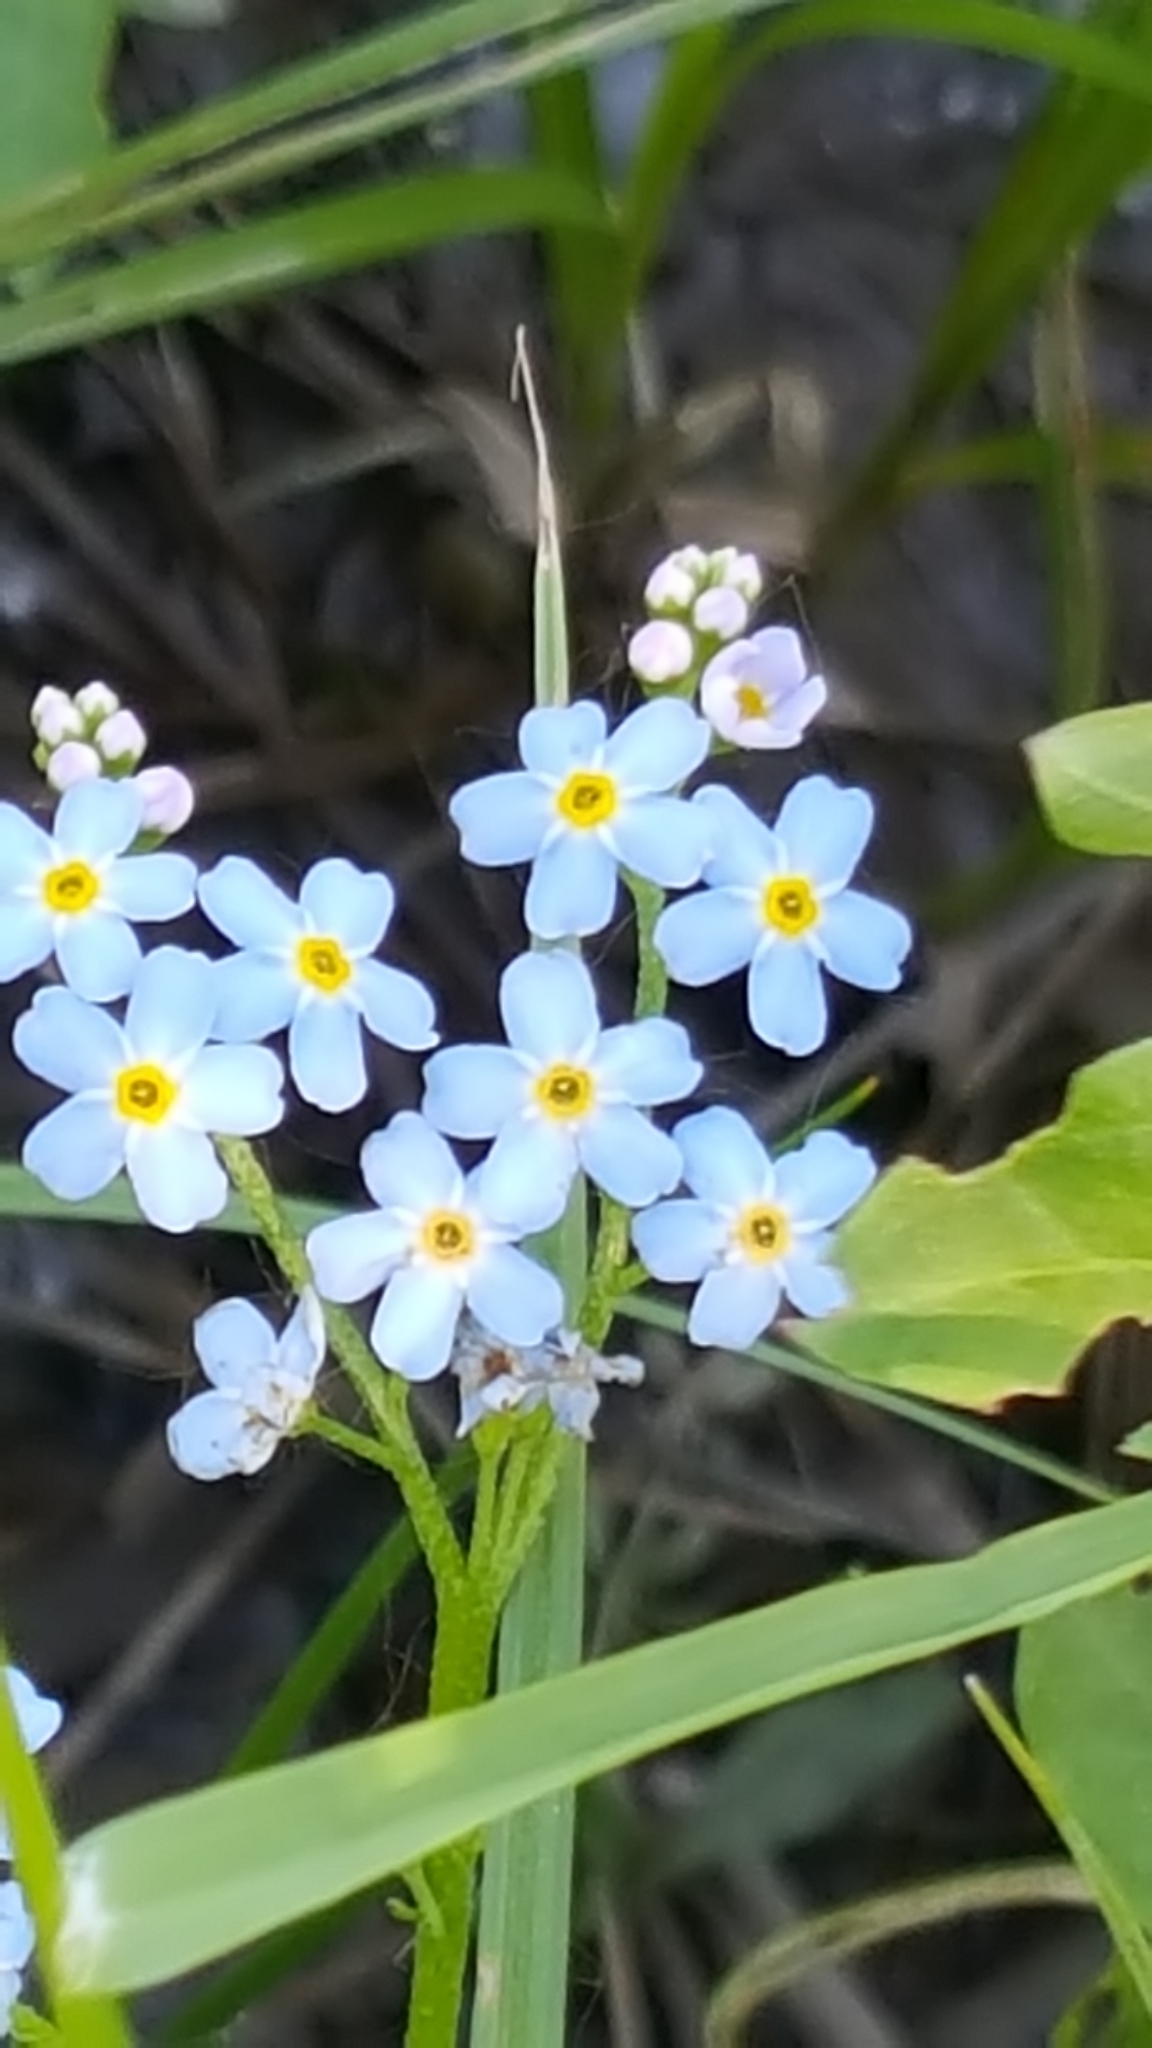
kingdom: Plantae
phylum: Tracheophyta
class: Magnoliopsida
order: Boraginales
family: Boraginaceae
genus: Myosotis
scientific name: Myosotis scorpioides
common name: Water forget-me-not
